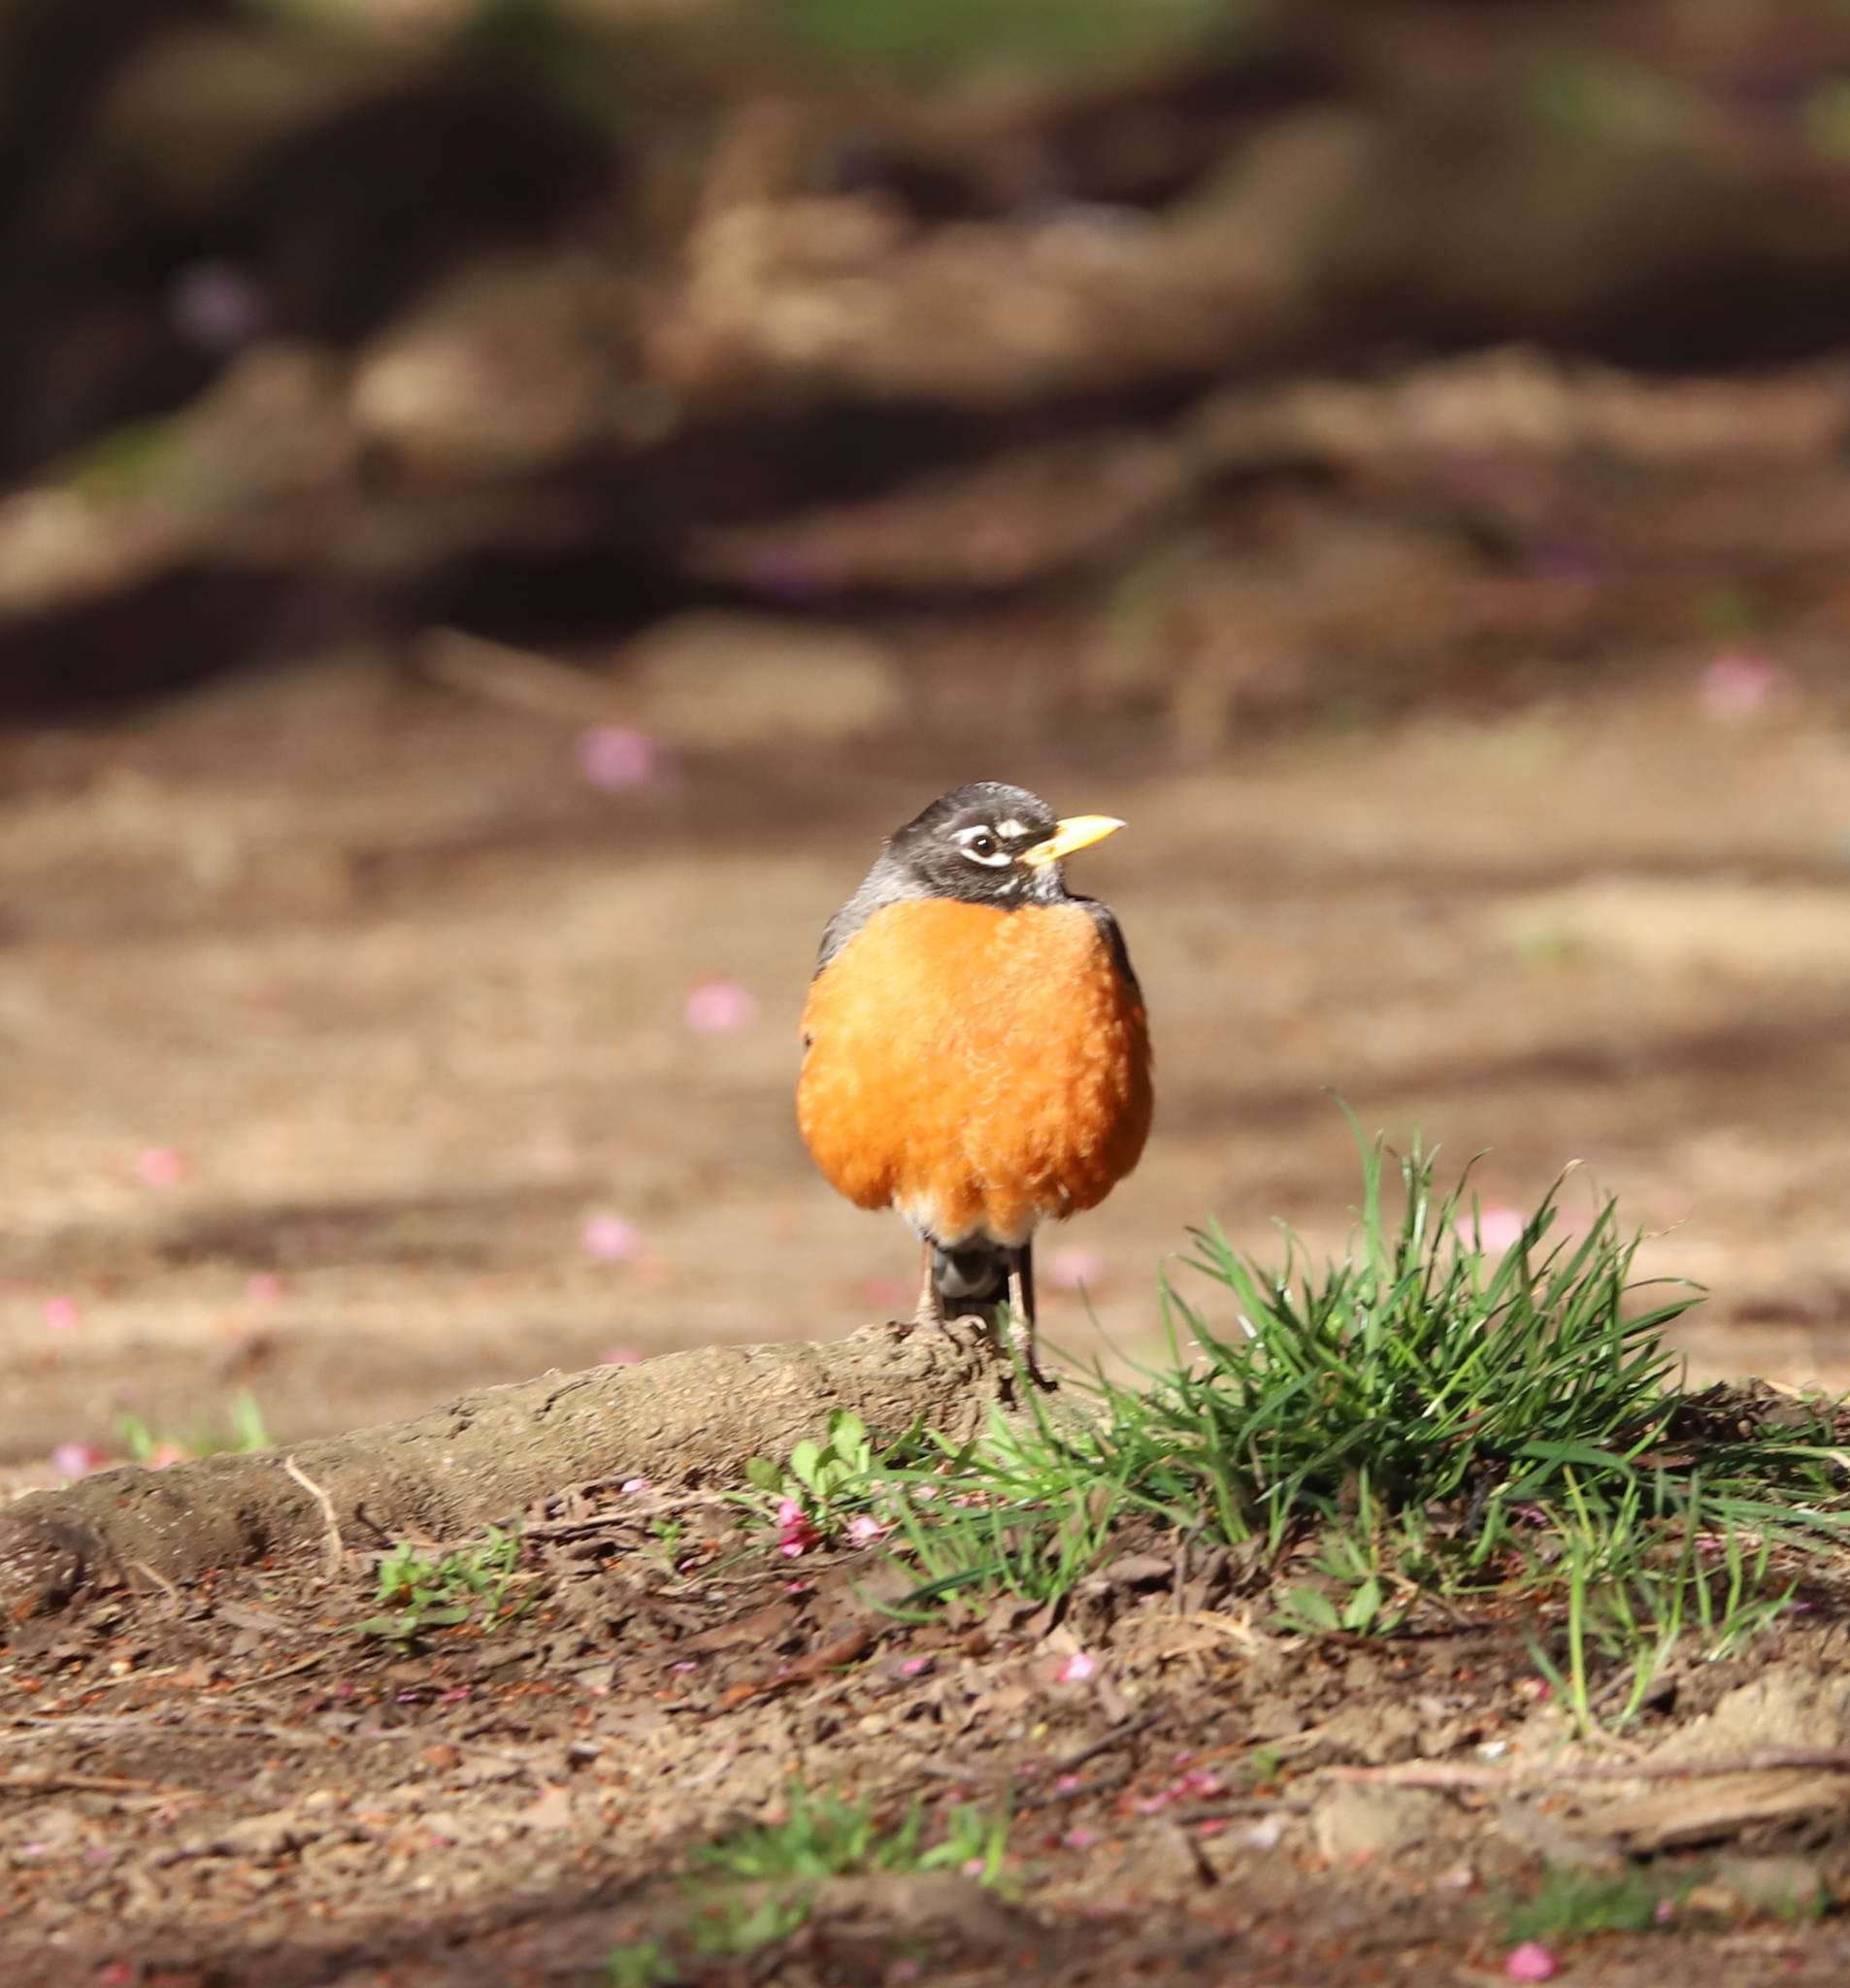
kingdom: Animalia
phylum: Chordata
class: Aves
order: Passeriformes
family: Turdidae
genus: Turdus
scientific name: Turdus migratorius
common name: American robin
